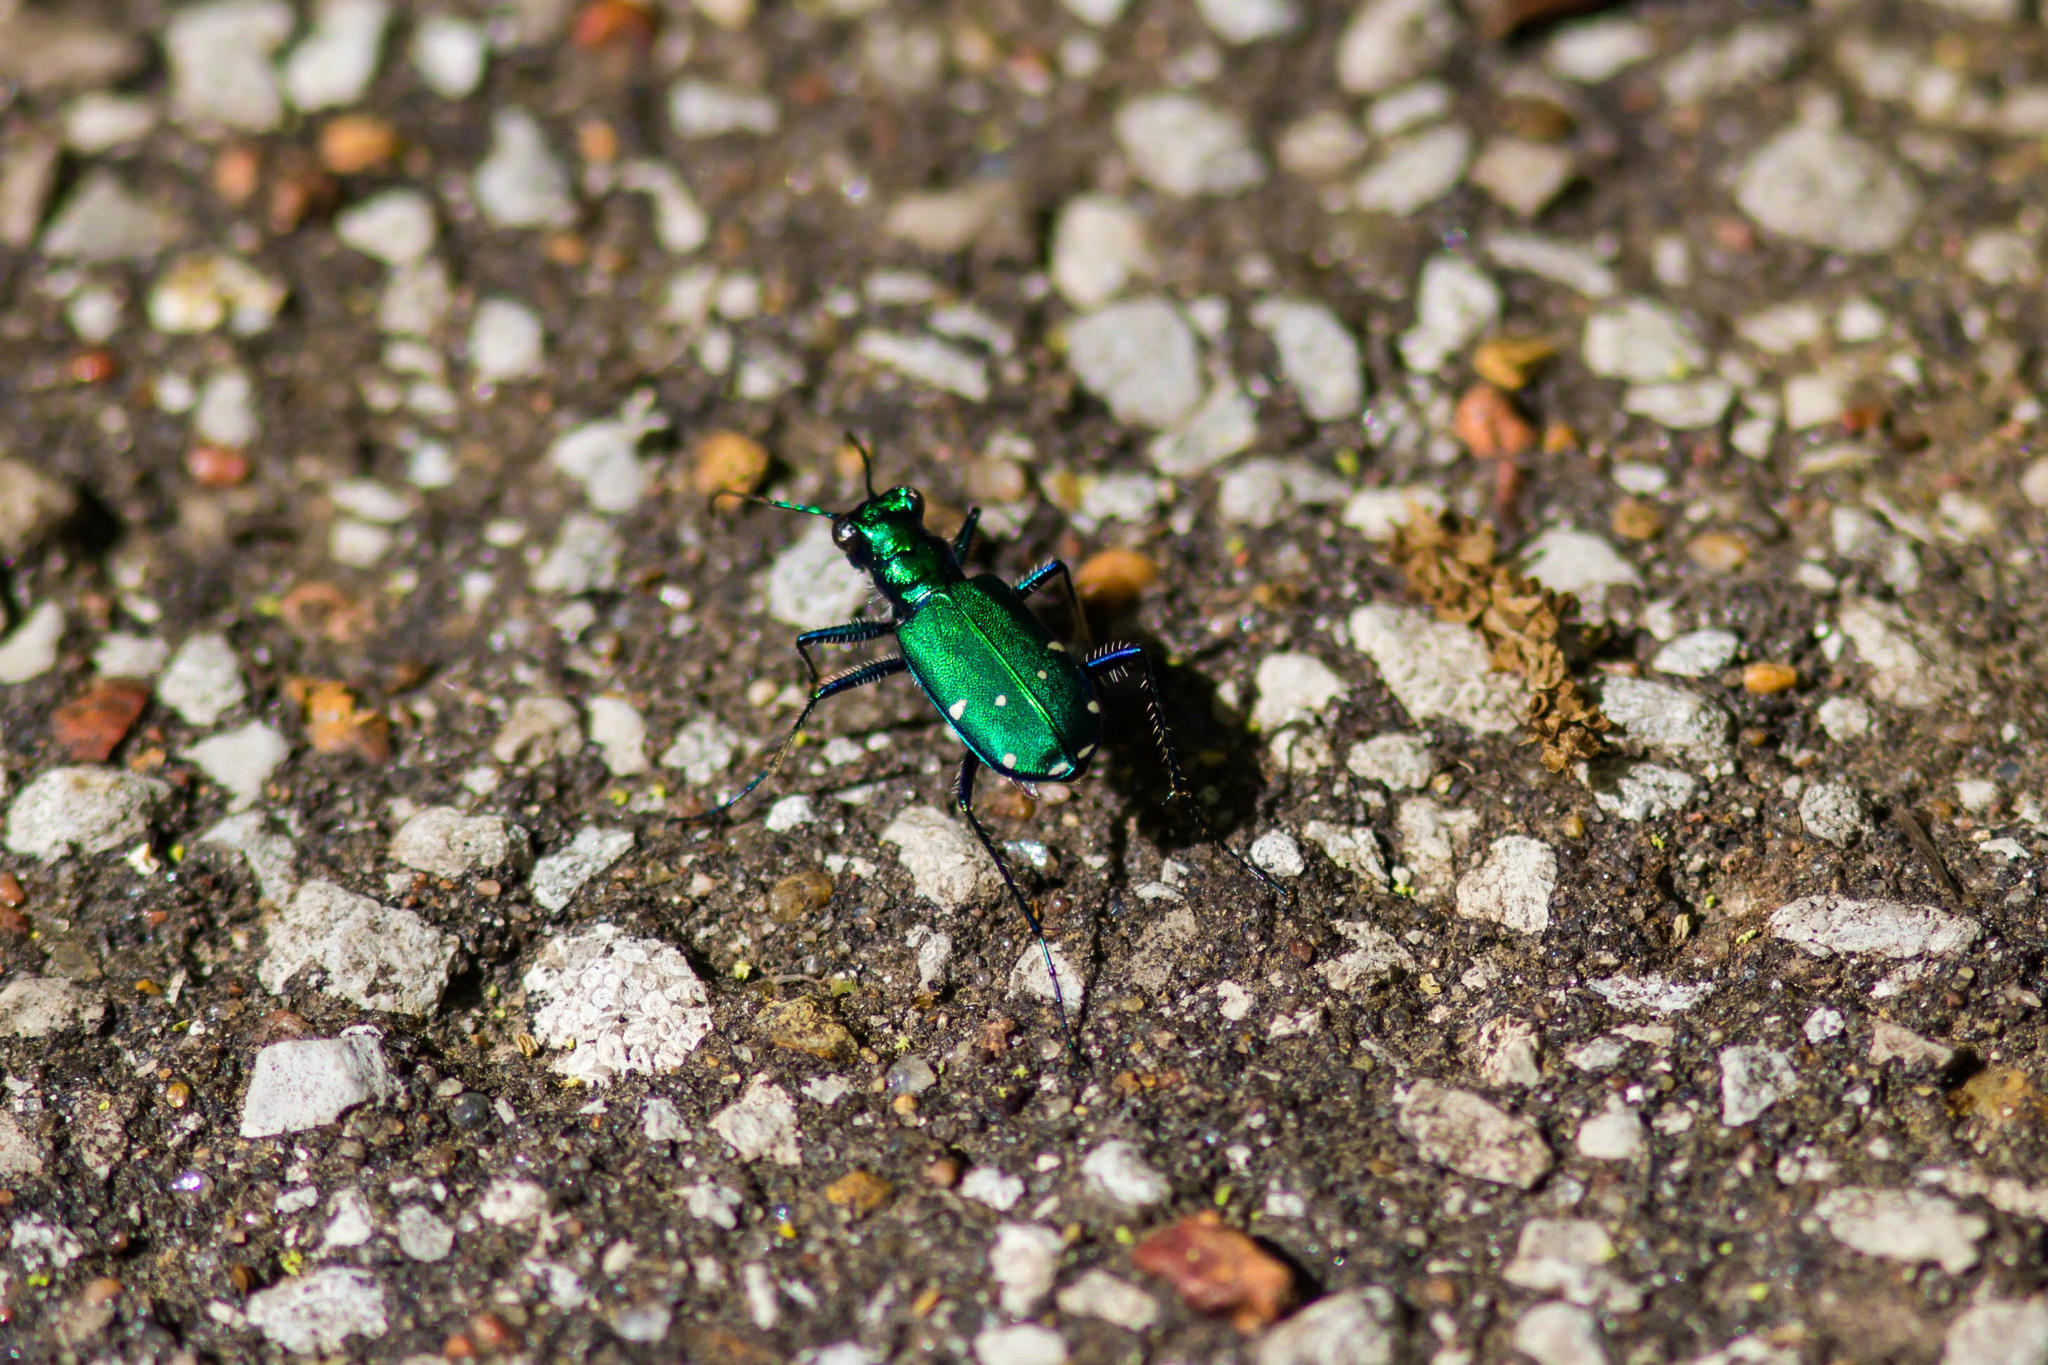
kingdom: Animalia
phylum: Arthropoda
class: Insecta
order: Coleoptera
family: Carabidae
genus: Cicindela
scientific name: Cicindela sexguttata
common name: Six-spotted tiger beetle
